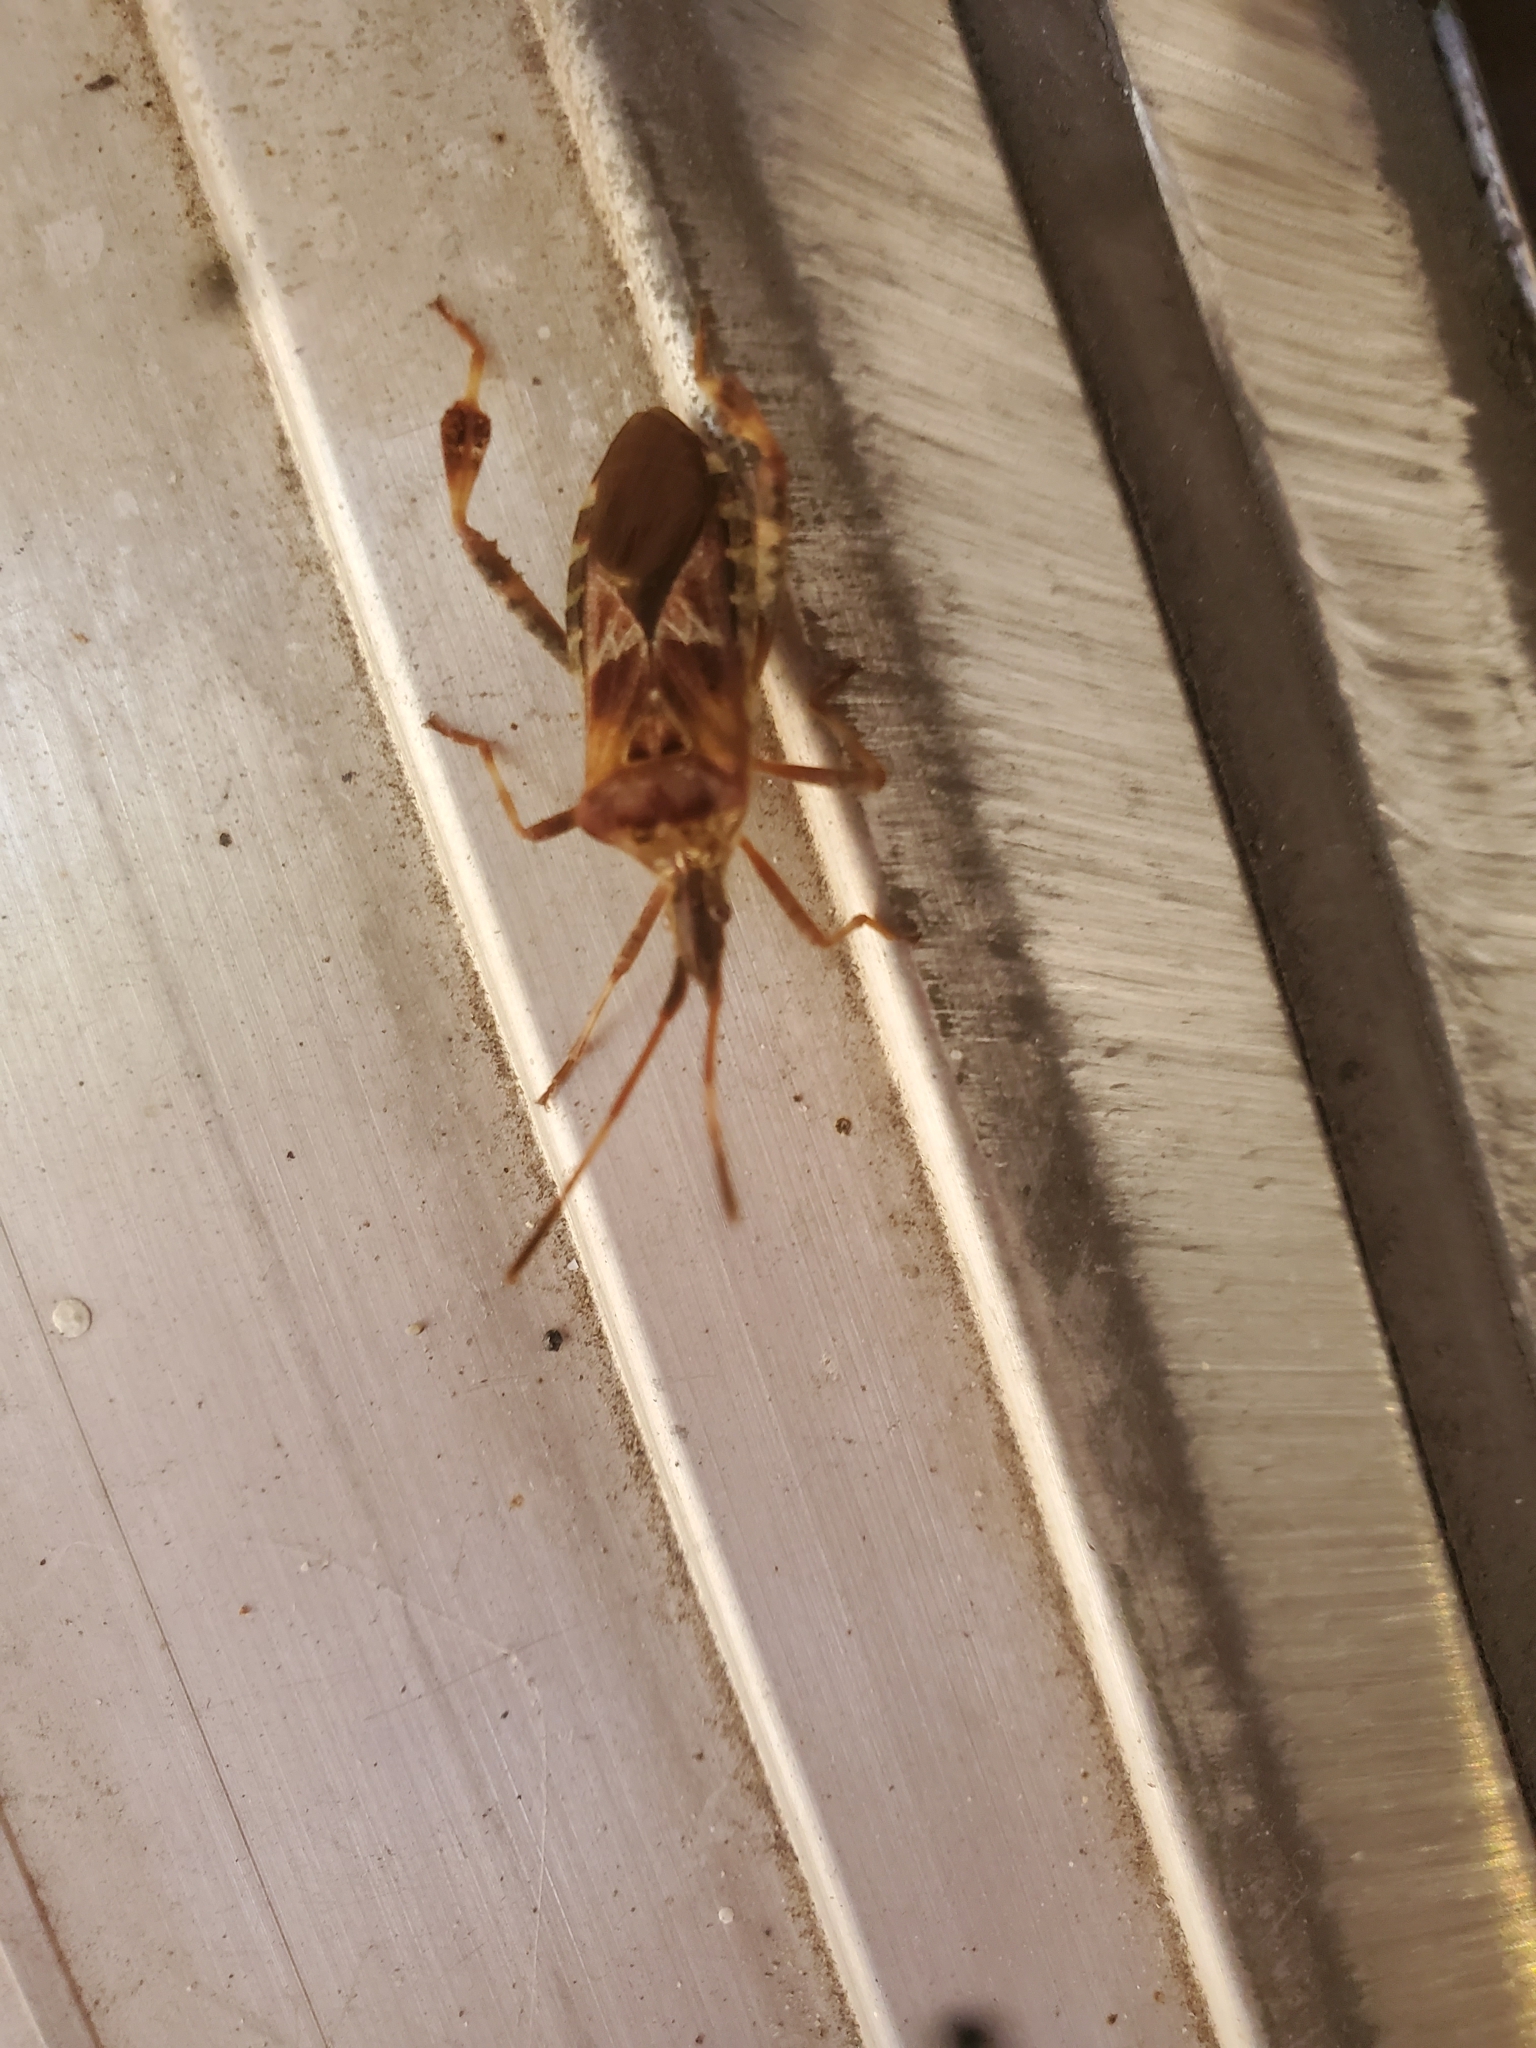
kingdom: Animalia
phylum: Arthropoda
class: Insecta
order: Hemiptera
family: Coreidae
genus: Leptoglossus
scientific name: Leptoglossus occidentalis
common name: Western conifer-seed bug
